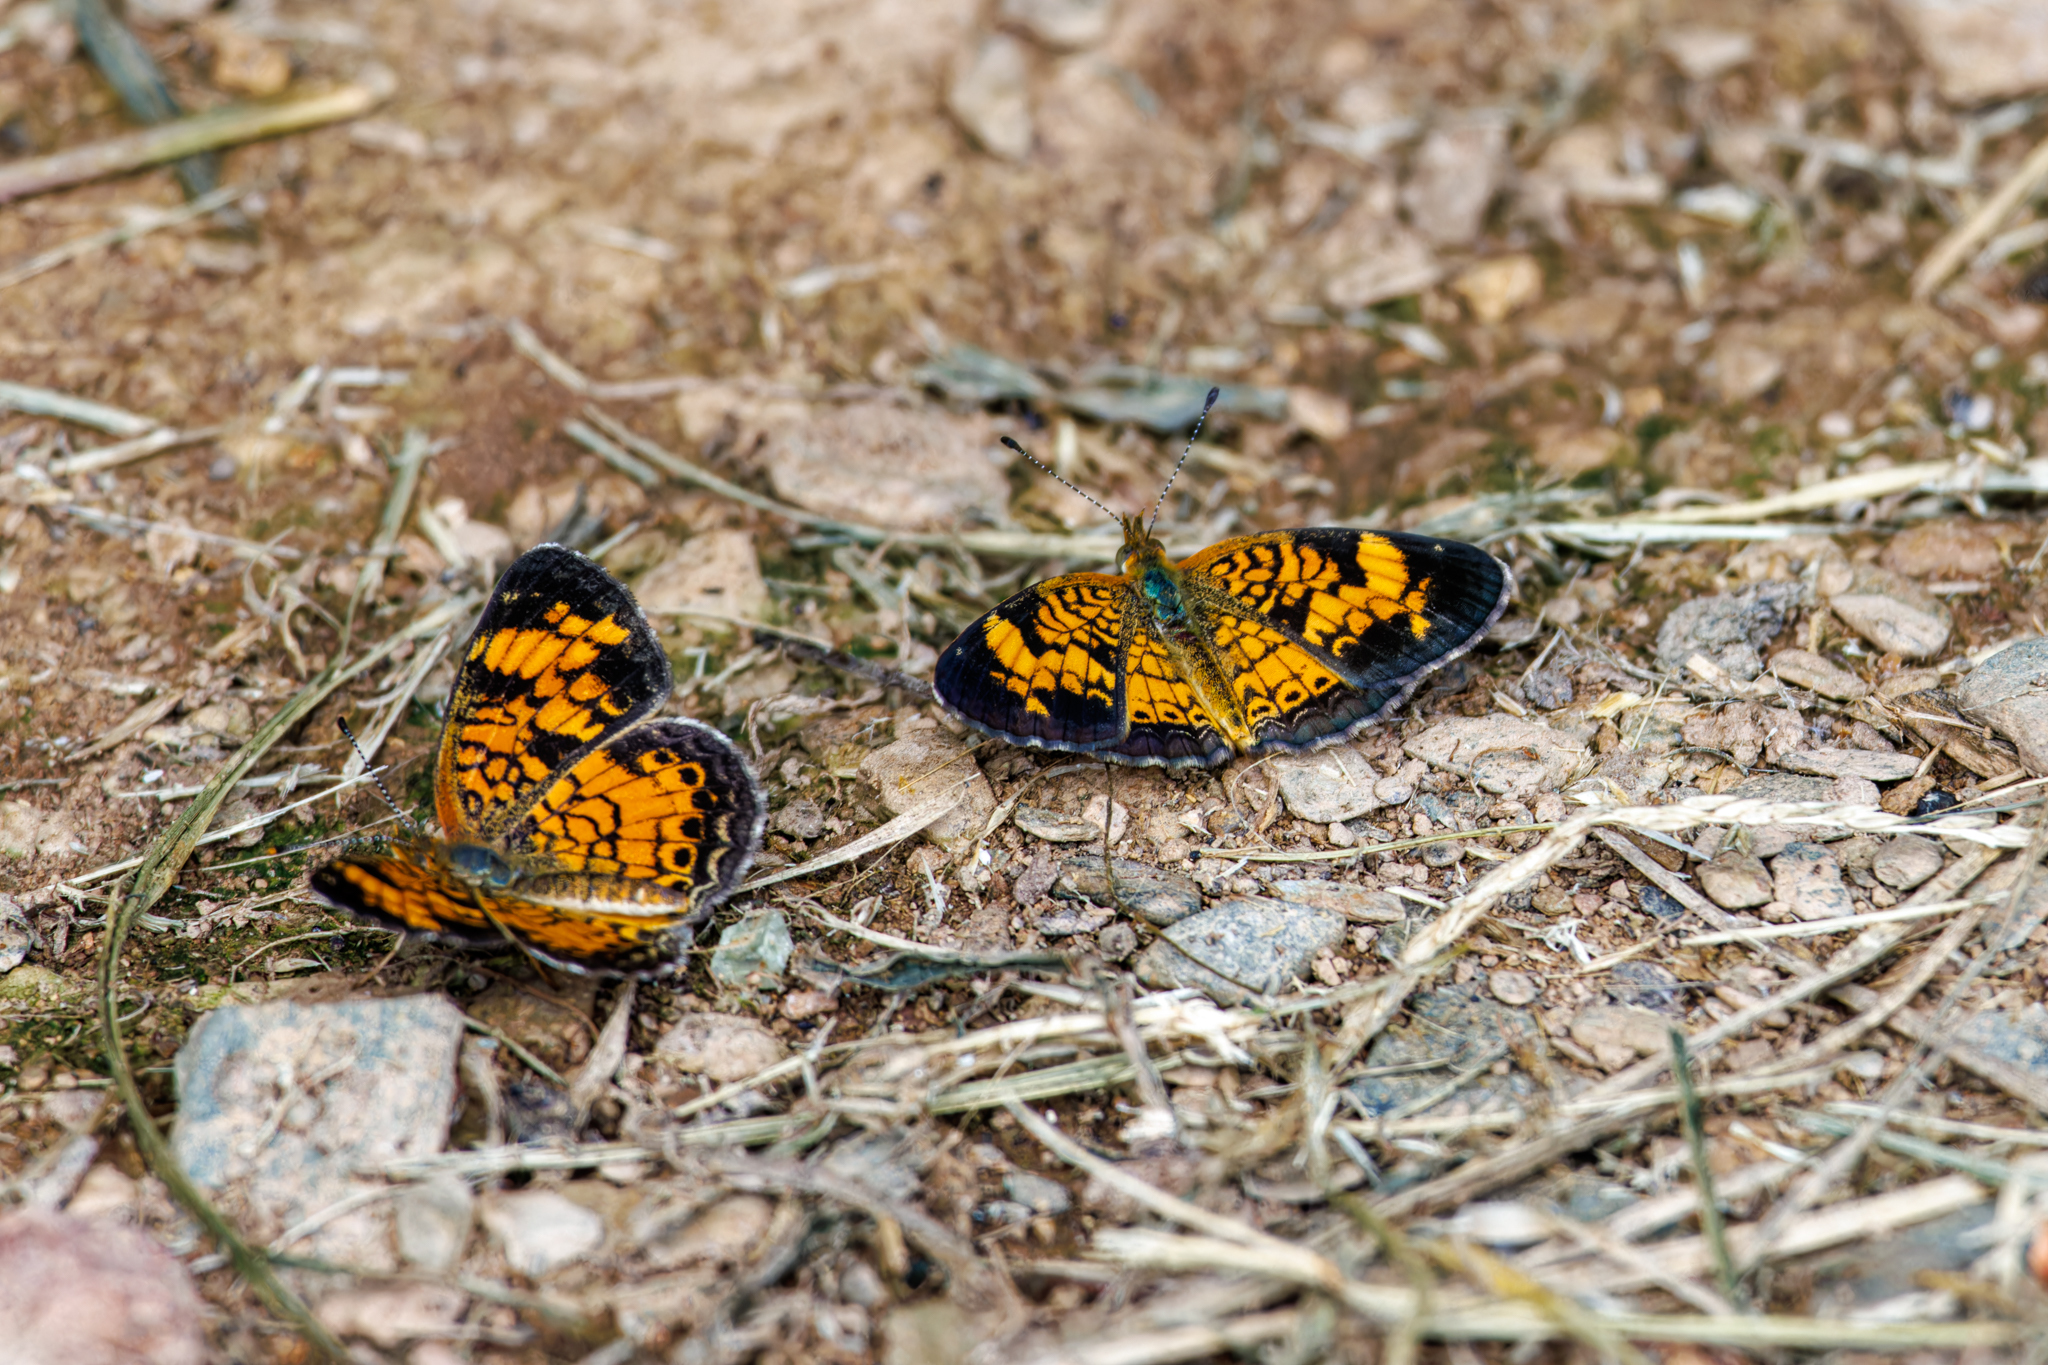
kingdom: Animalia
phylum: Arthropoda
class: Insecta
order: Lepidoptera
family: Nymphalidae
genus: Phyciodes
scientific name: Phyciodes tharos
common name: Pearl crescent
